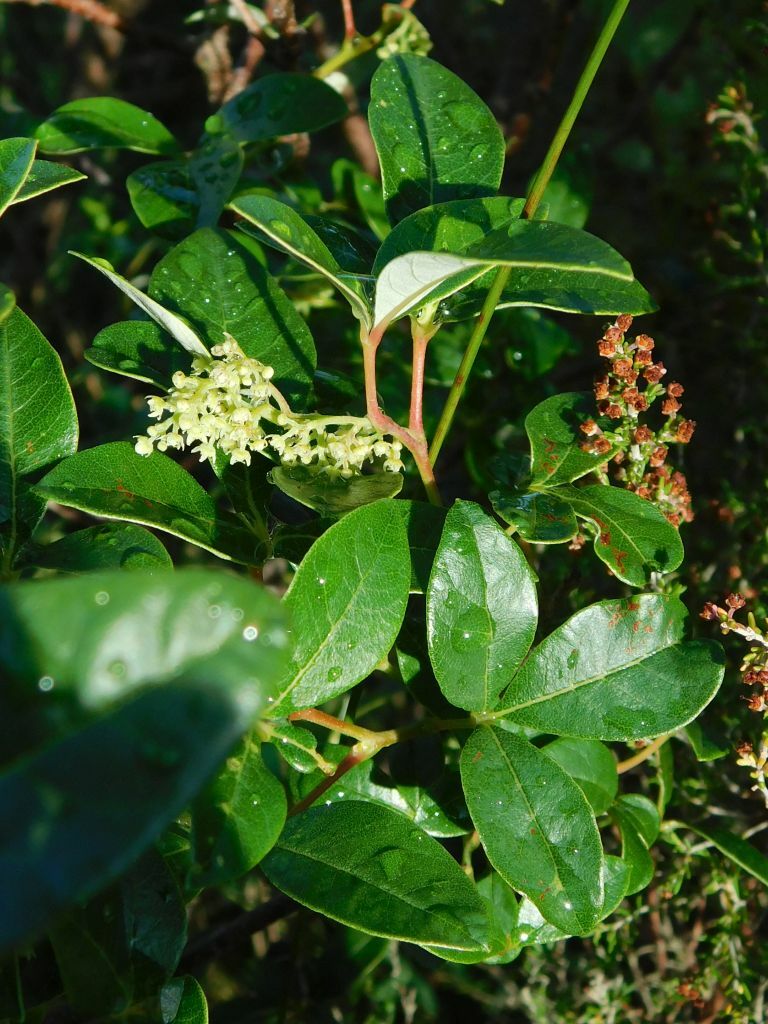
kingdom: Plantae
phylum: Tracheophyta
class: Magnoliopsida
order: Sapindales
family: Anacardiaceae
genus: Searsia
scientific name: Searsia tomentosa
